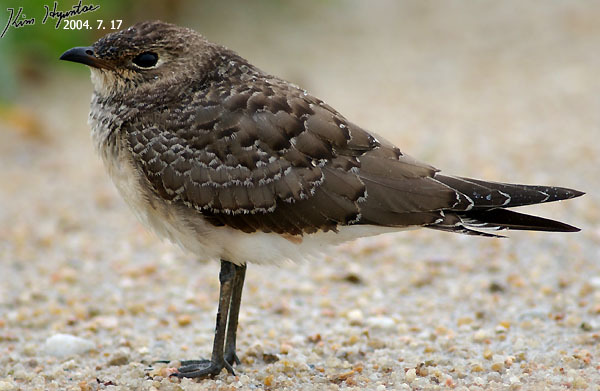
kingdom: Animalia
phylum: Chordata
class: Aves
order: Charadriiformes
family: Glareolidae
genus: Glareola
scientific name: Glareola maldivarum
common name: Oriental pratincole
